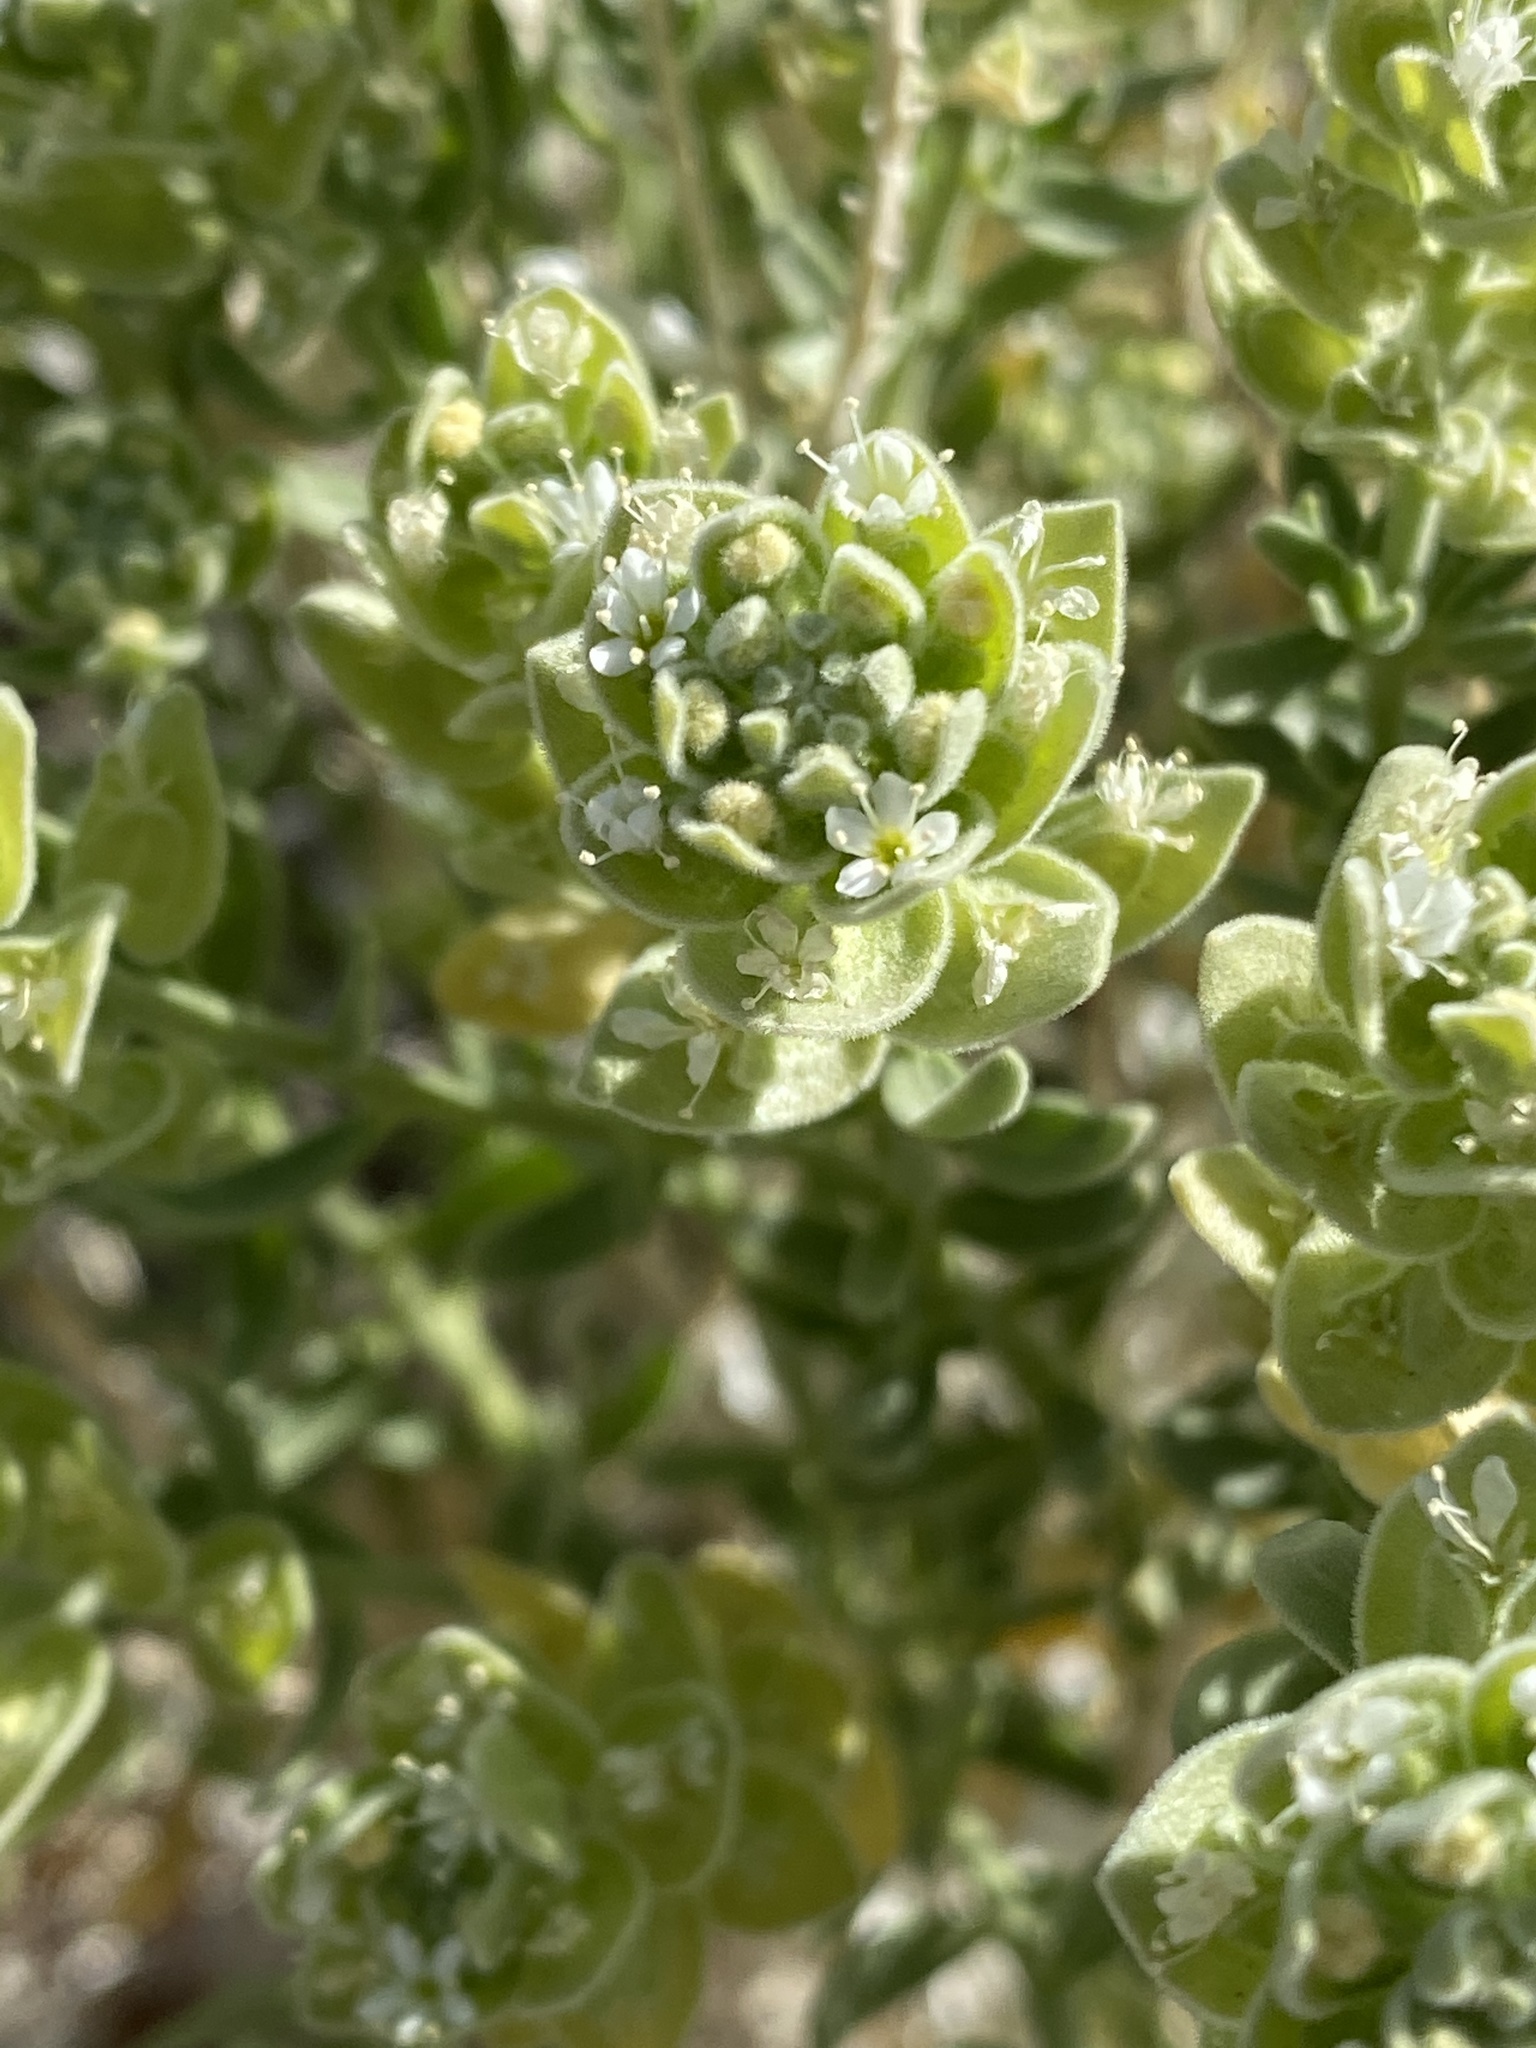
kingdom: Plantae
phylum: Tracheophyta
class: Magnoliopsida
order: Cornales
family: Loasaceae
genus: Petalonyx
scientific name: Petalonyx linearis
